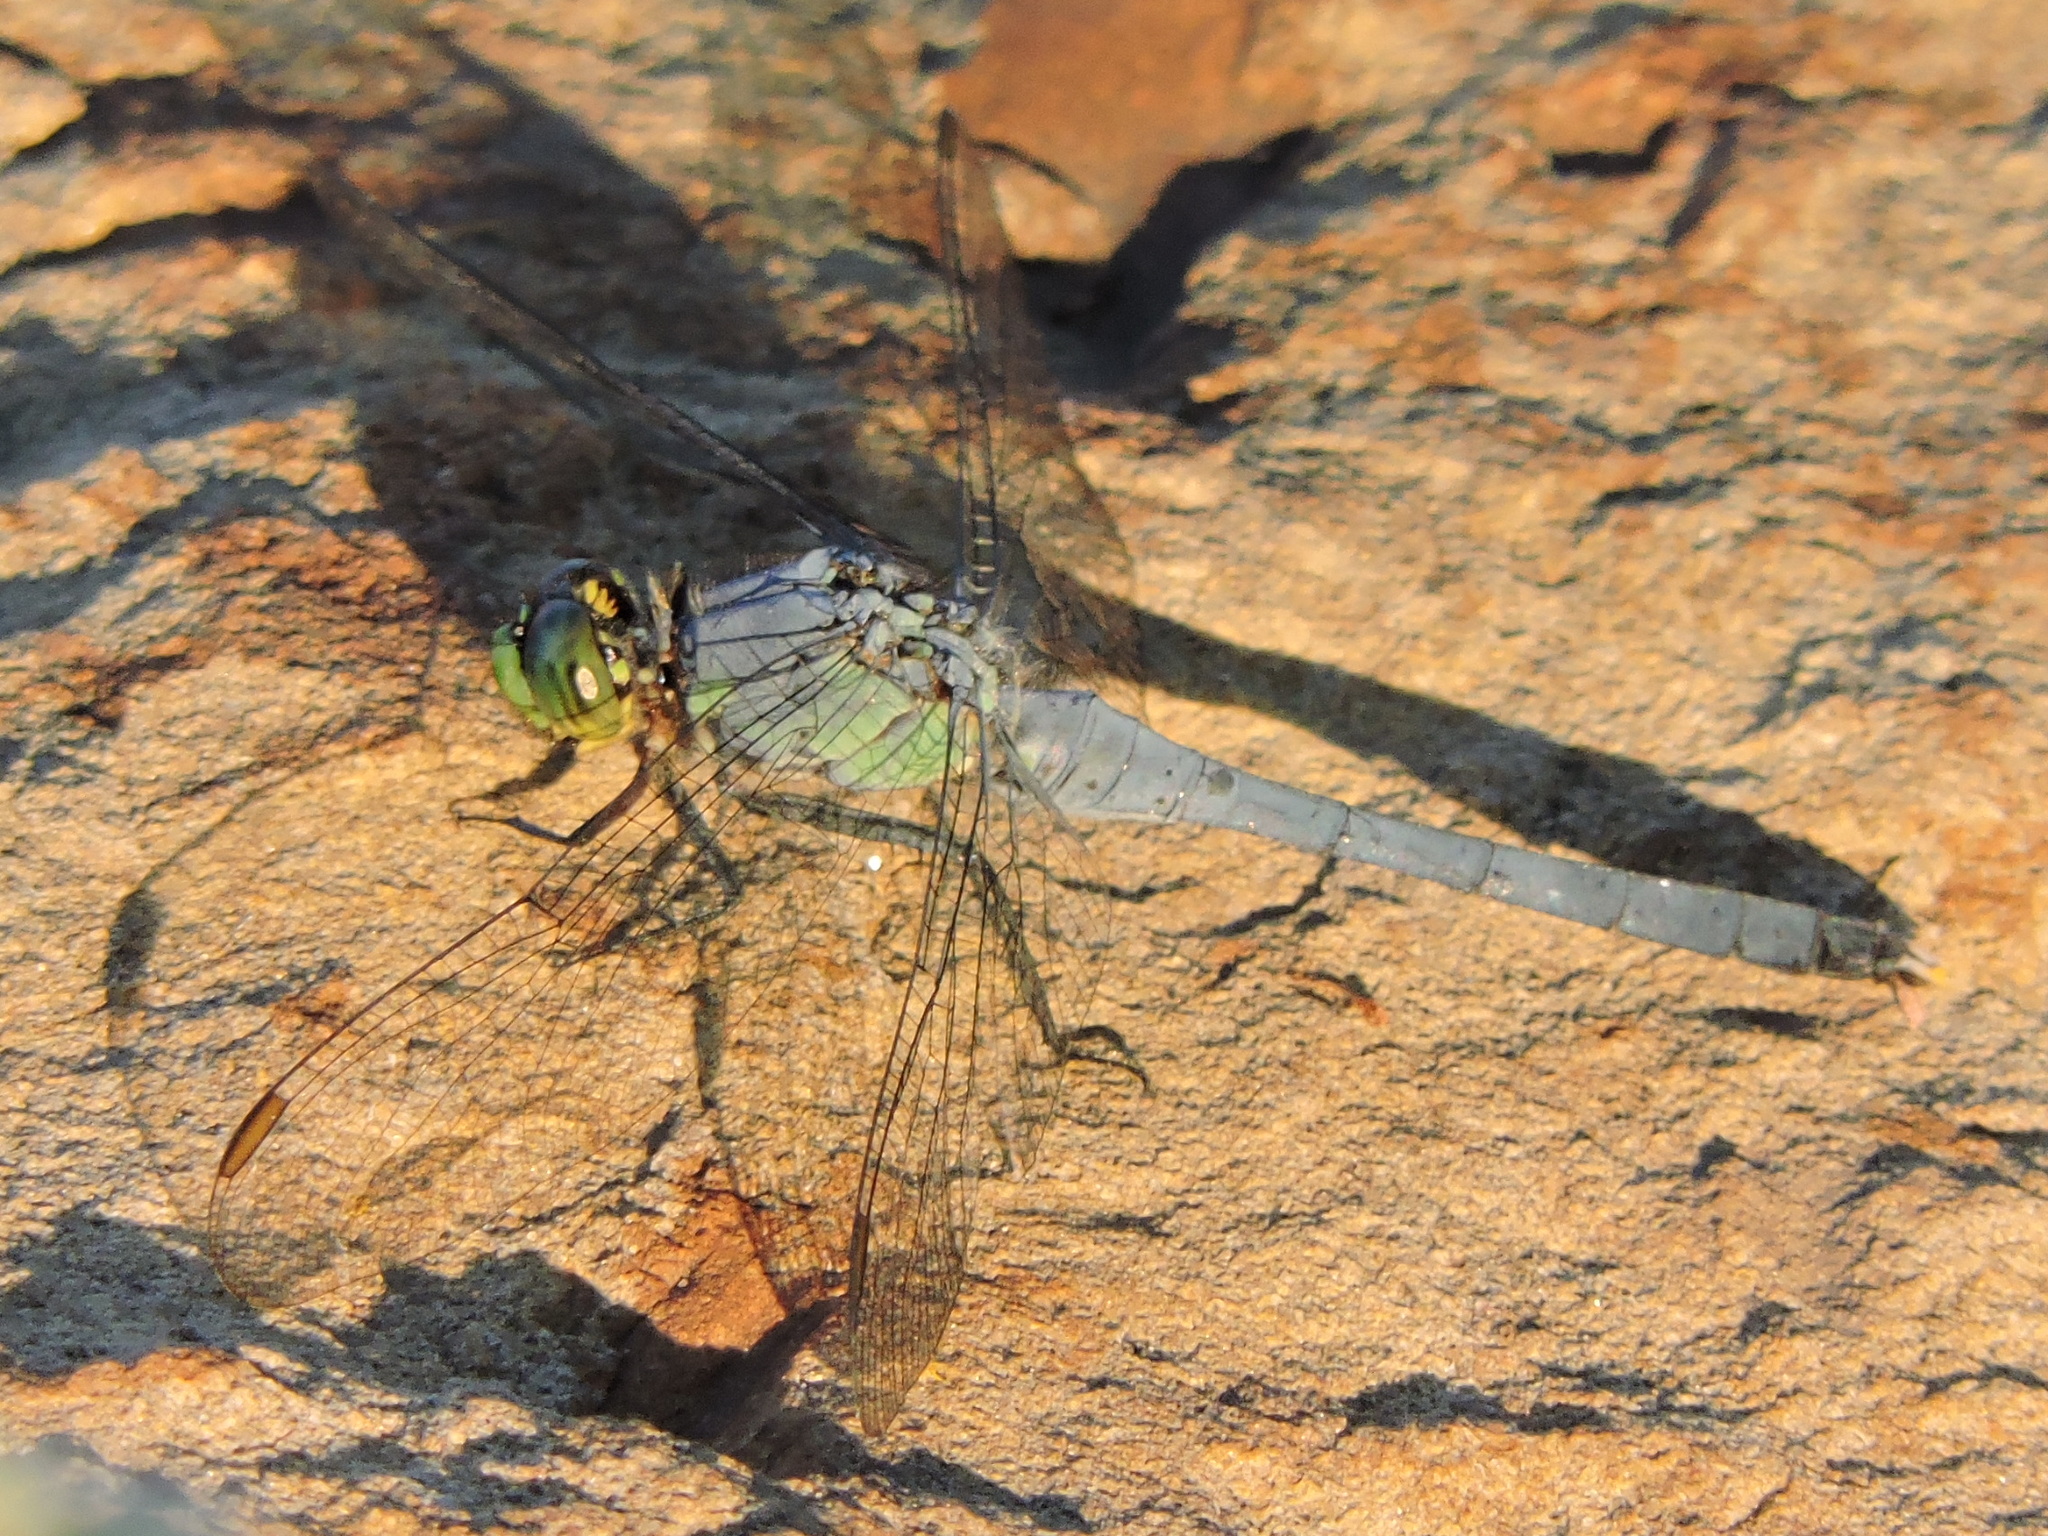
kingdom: Animalia
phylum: Arthropoda
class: Insecta
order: Odonata
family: Libellulidae
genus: Erythemis
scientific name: Erythemis simplicicollis
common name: Eastern pondhawk
